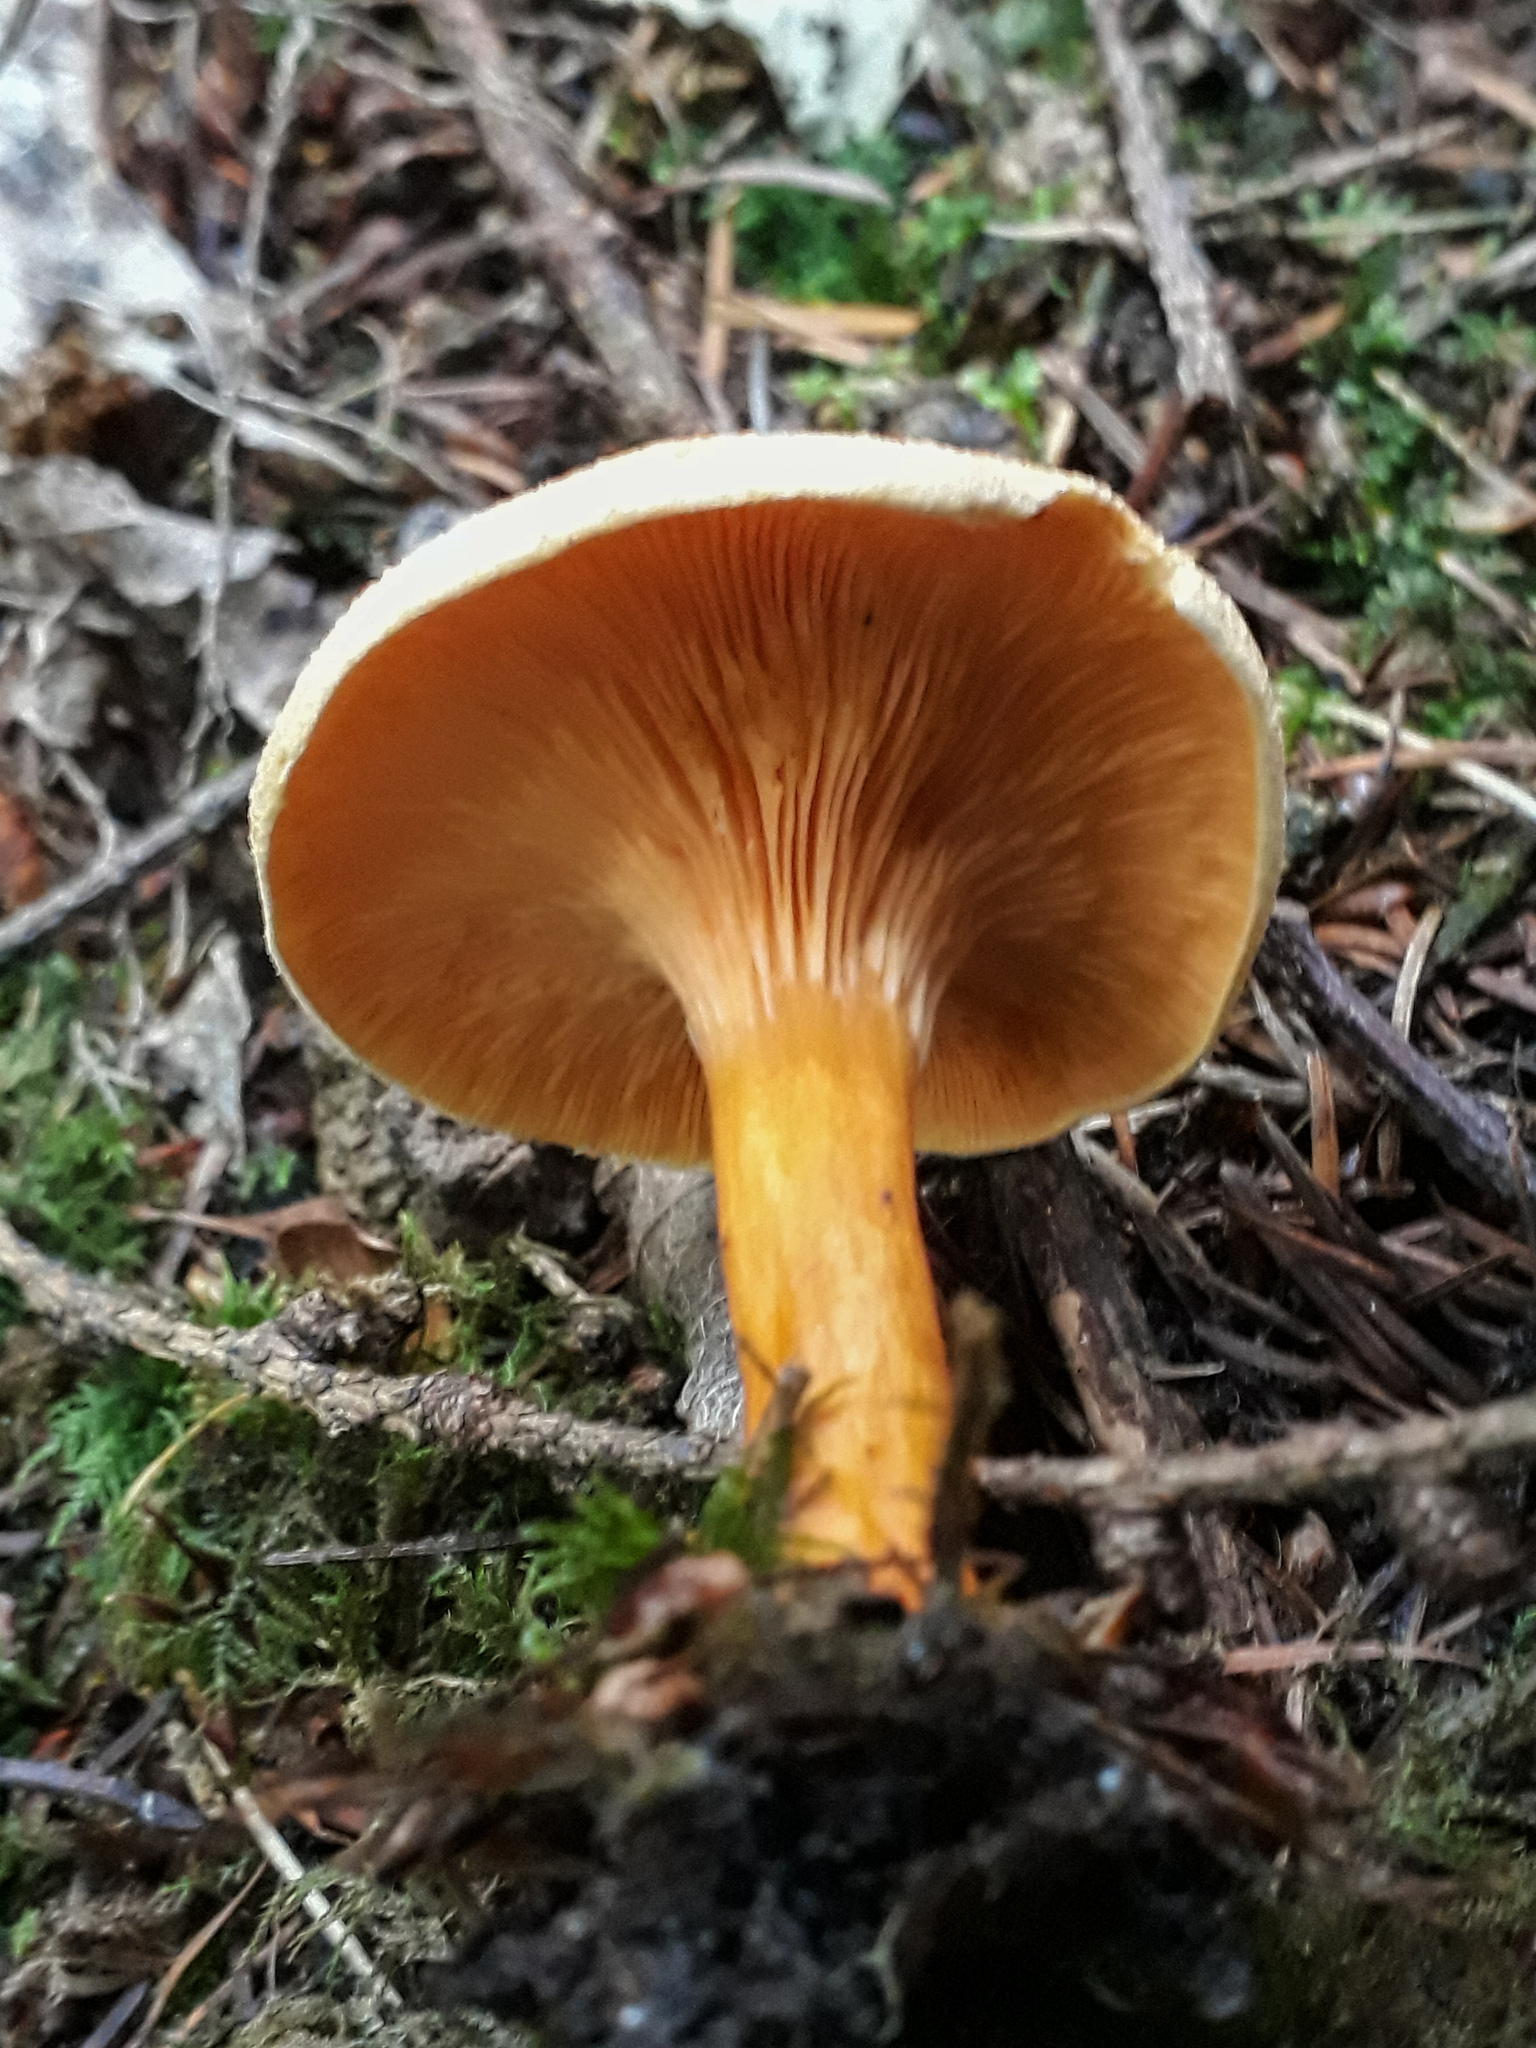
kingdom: Fungi
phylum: Basidiomycota
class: Agaricomycetes
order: Boletales
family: Hygrophoropsidaceae
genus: Hygrophoropsis
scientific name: Hygrophoropsis aurantiaca
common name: False chanterelle
